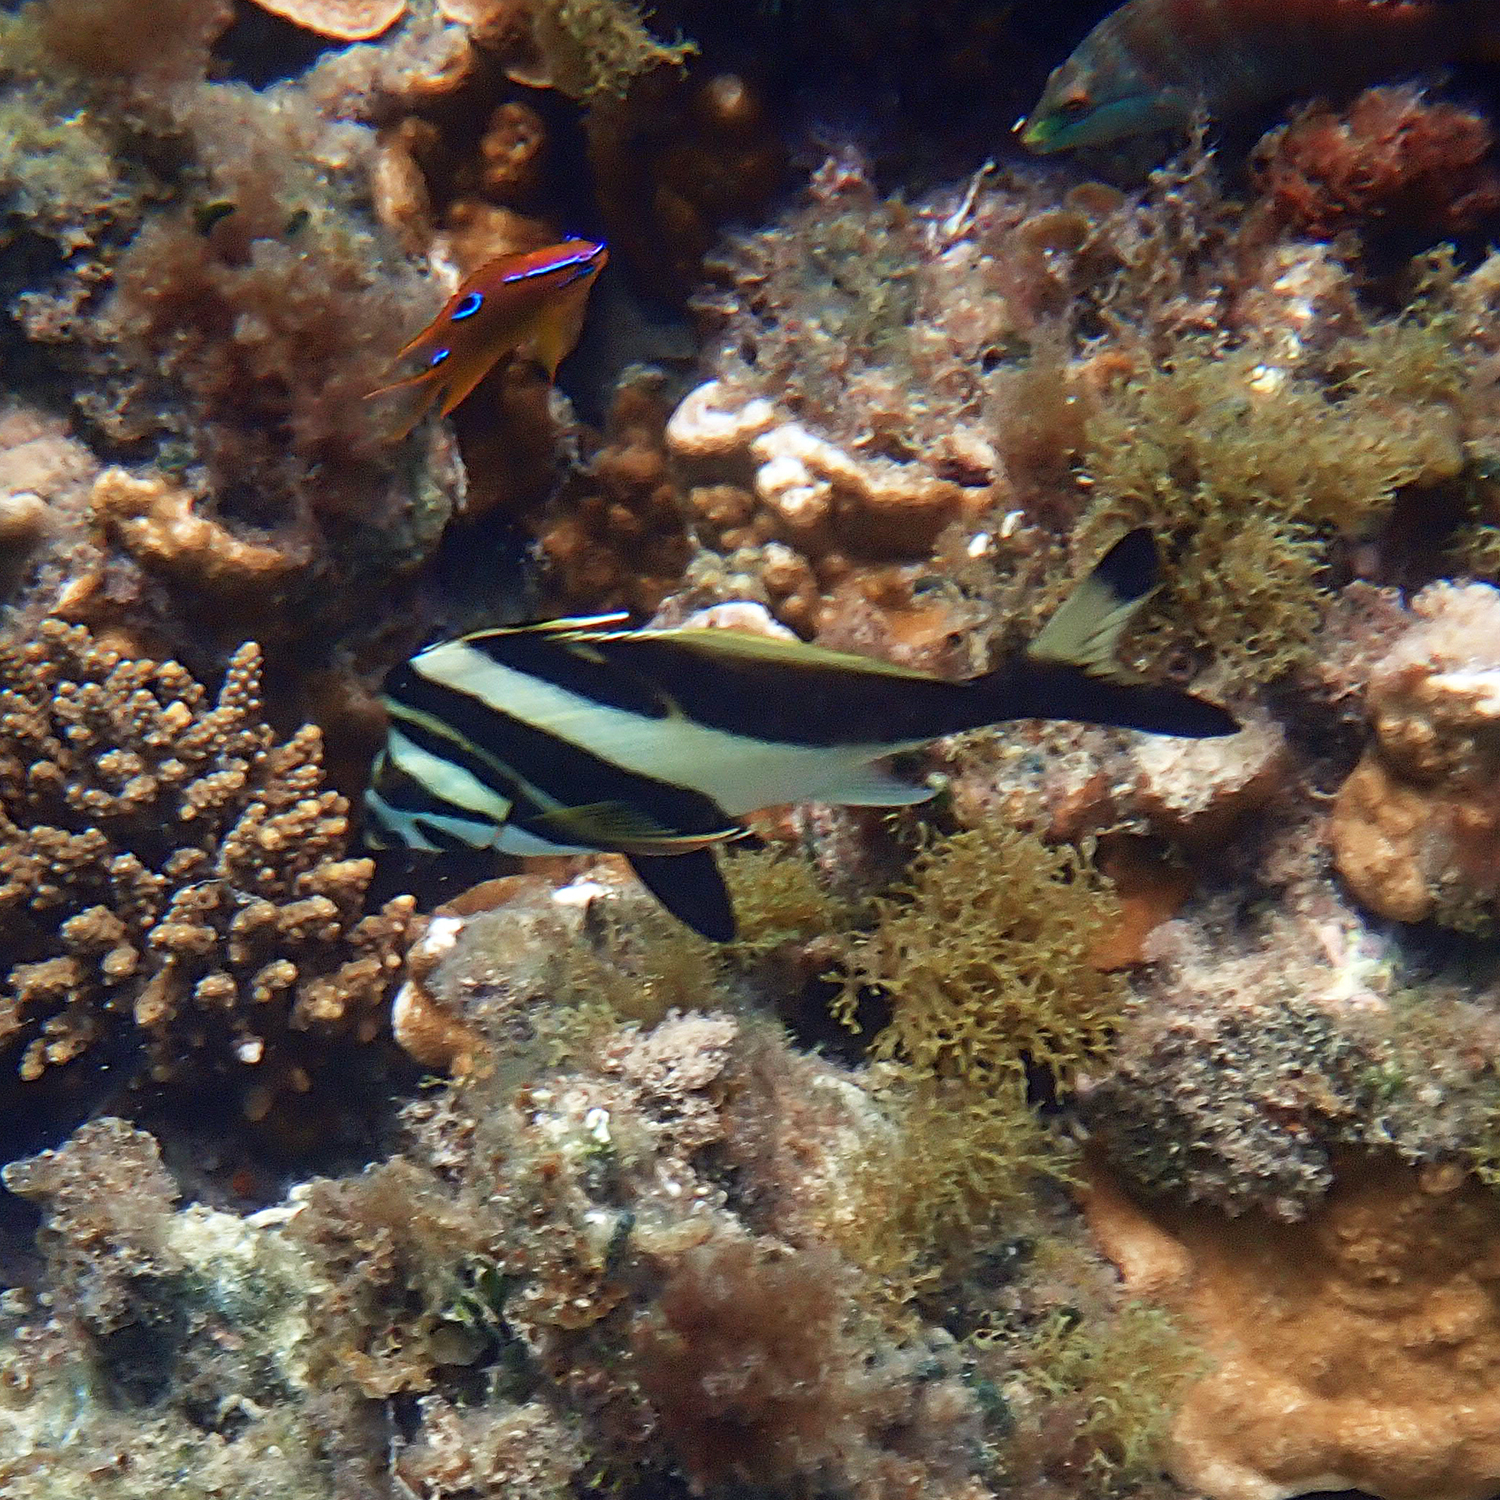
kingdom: Animalia
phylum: Chordata
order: Perciformes
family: Cheilodactylidae
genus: Cheilodactylus
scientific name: Cheilodactylus francisi
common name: Blacktip morwong
